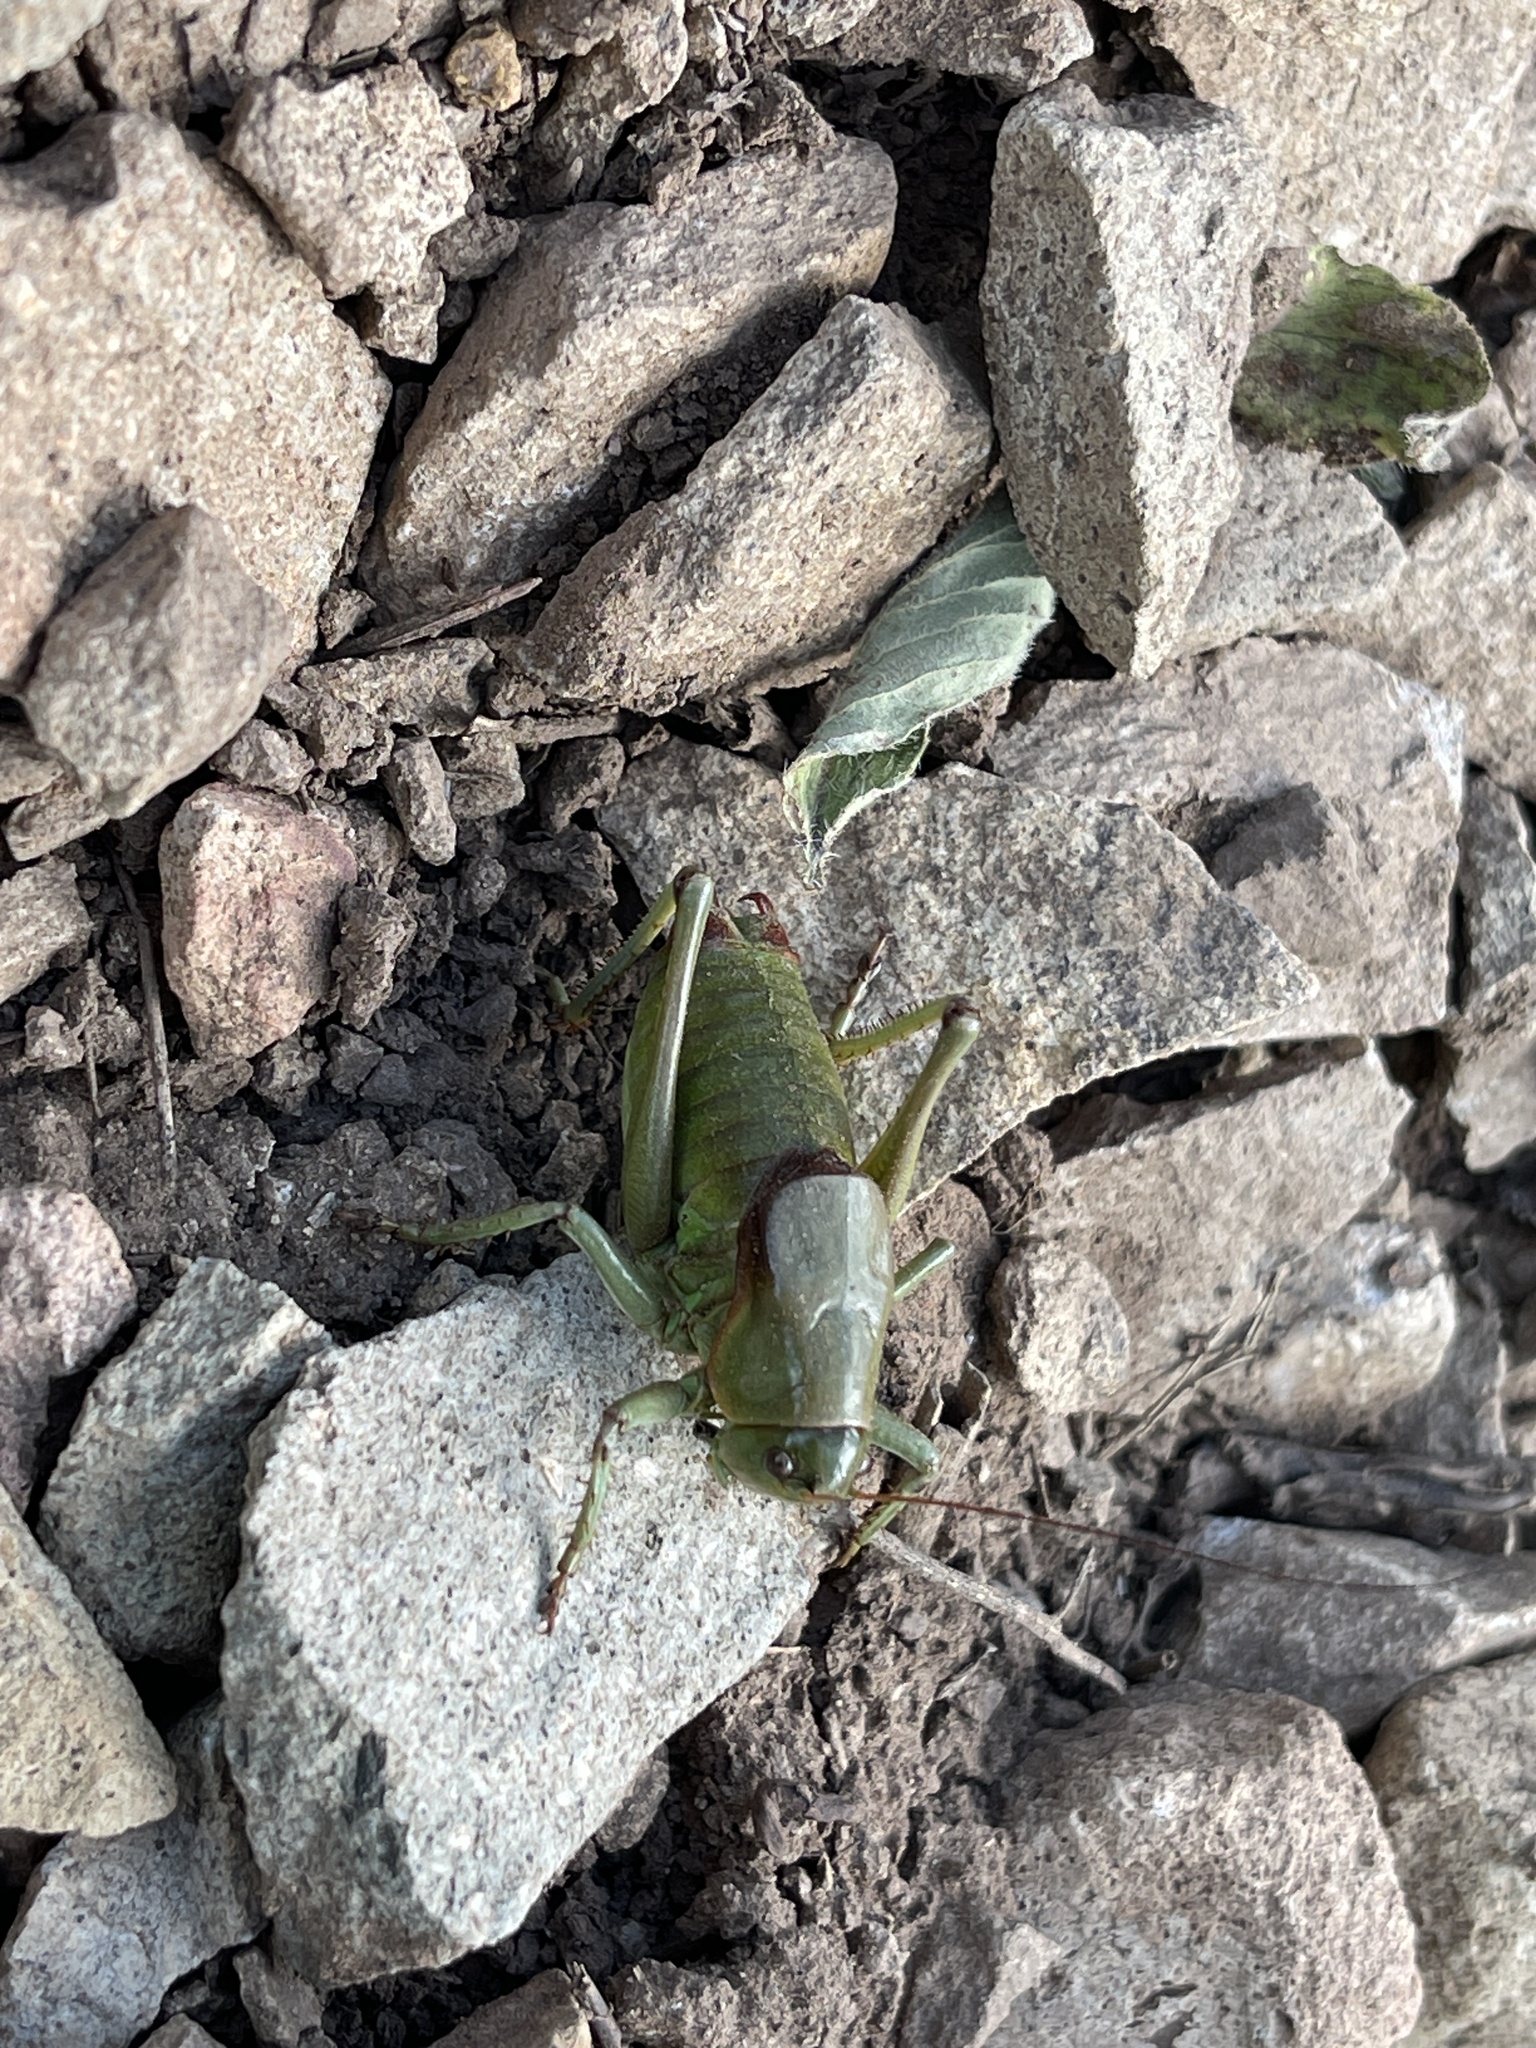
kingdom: Animalia
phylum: Arthropoda
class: Insecta
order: Orthoptera
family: Tettigoniidae
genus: Anabrus
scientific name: Anabrus simplex
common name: Mormon cricket
